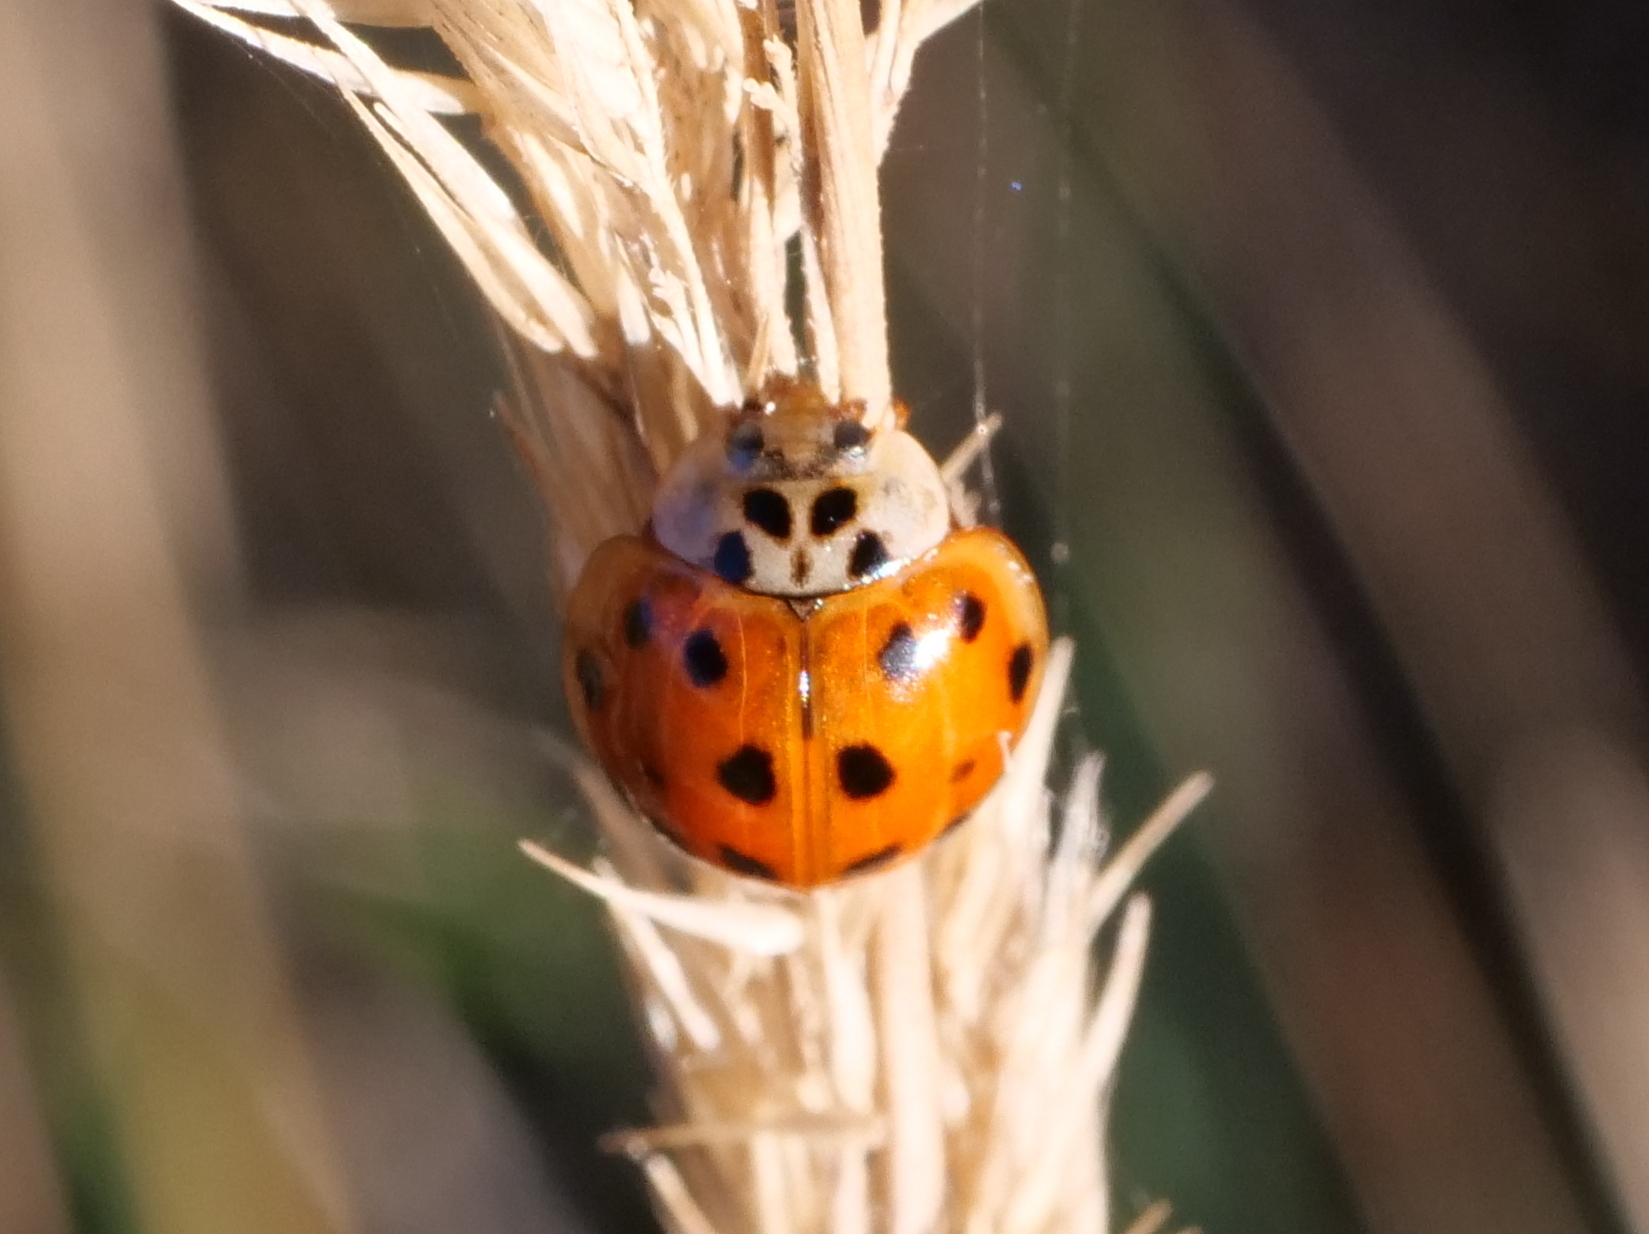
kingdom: Animalia
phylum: Arthropoda
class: Insecta
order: Coleoptera
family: Coccinellidae
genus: Harmonia
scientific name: Harmonia axyridis
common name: Harlequin ladybird
